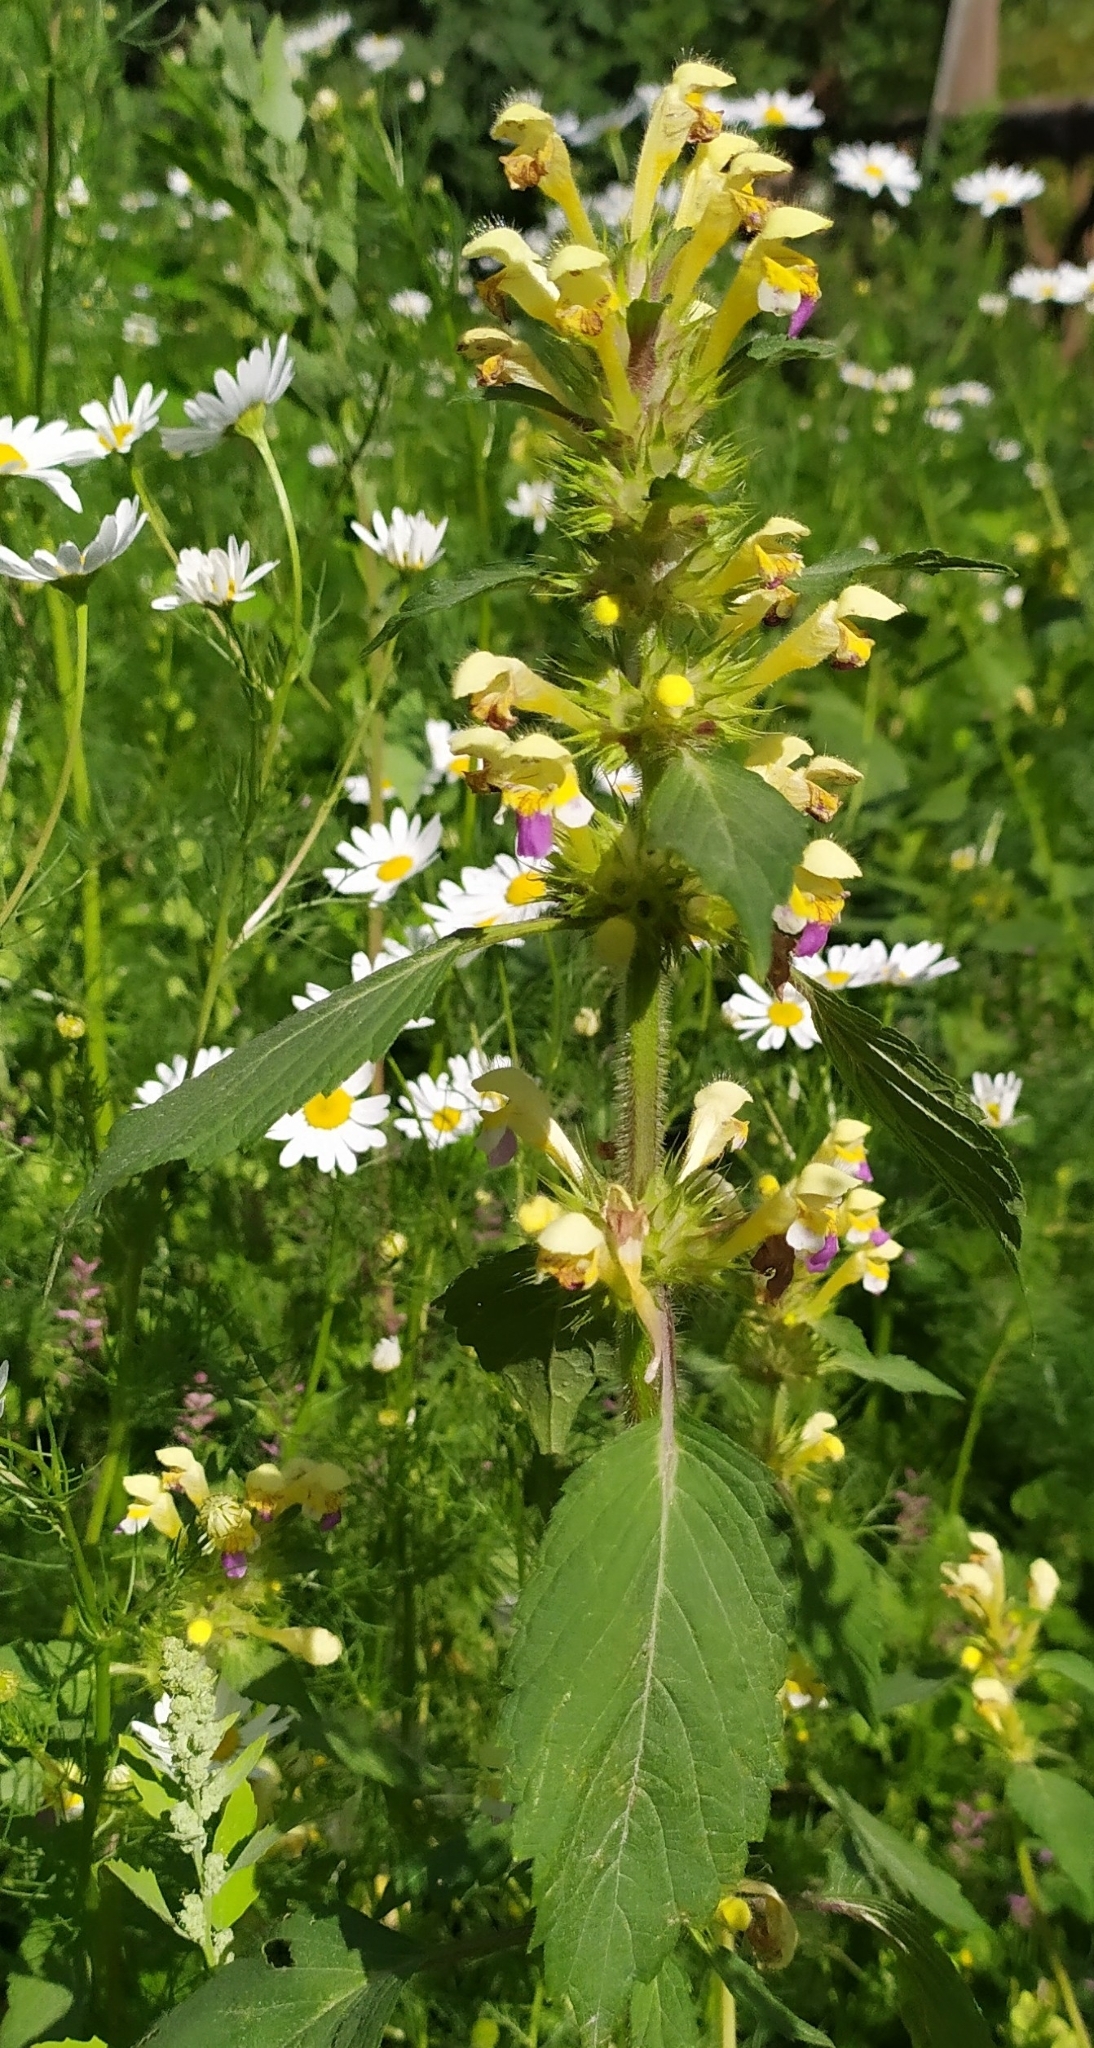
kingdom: Plantae
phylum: Tracheophyta
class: Magnoliopsida
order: Lamiales
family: Lamiaceae
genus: Galeopsis
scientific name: Galeopsis speciosa
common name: Large-flowered hemp-nettle
